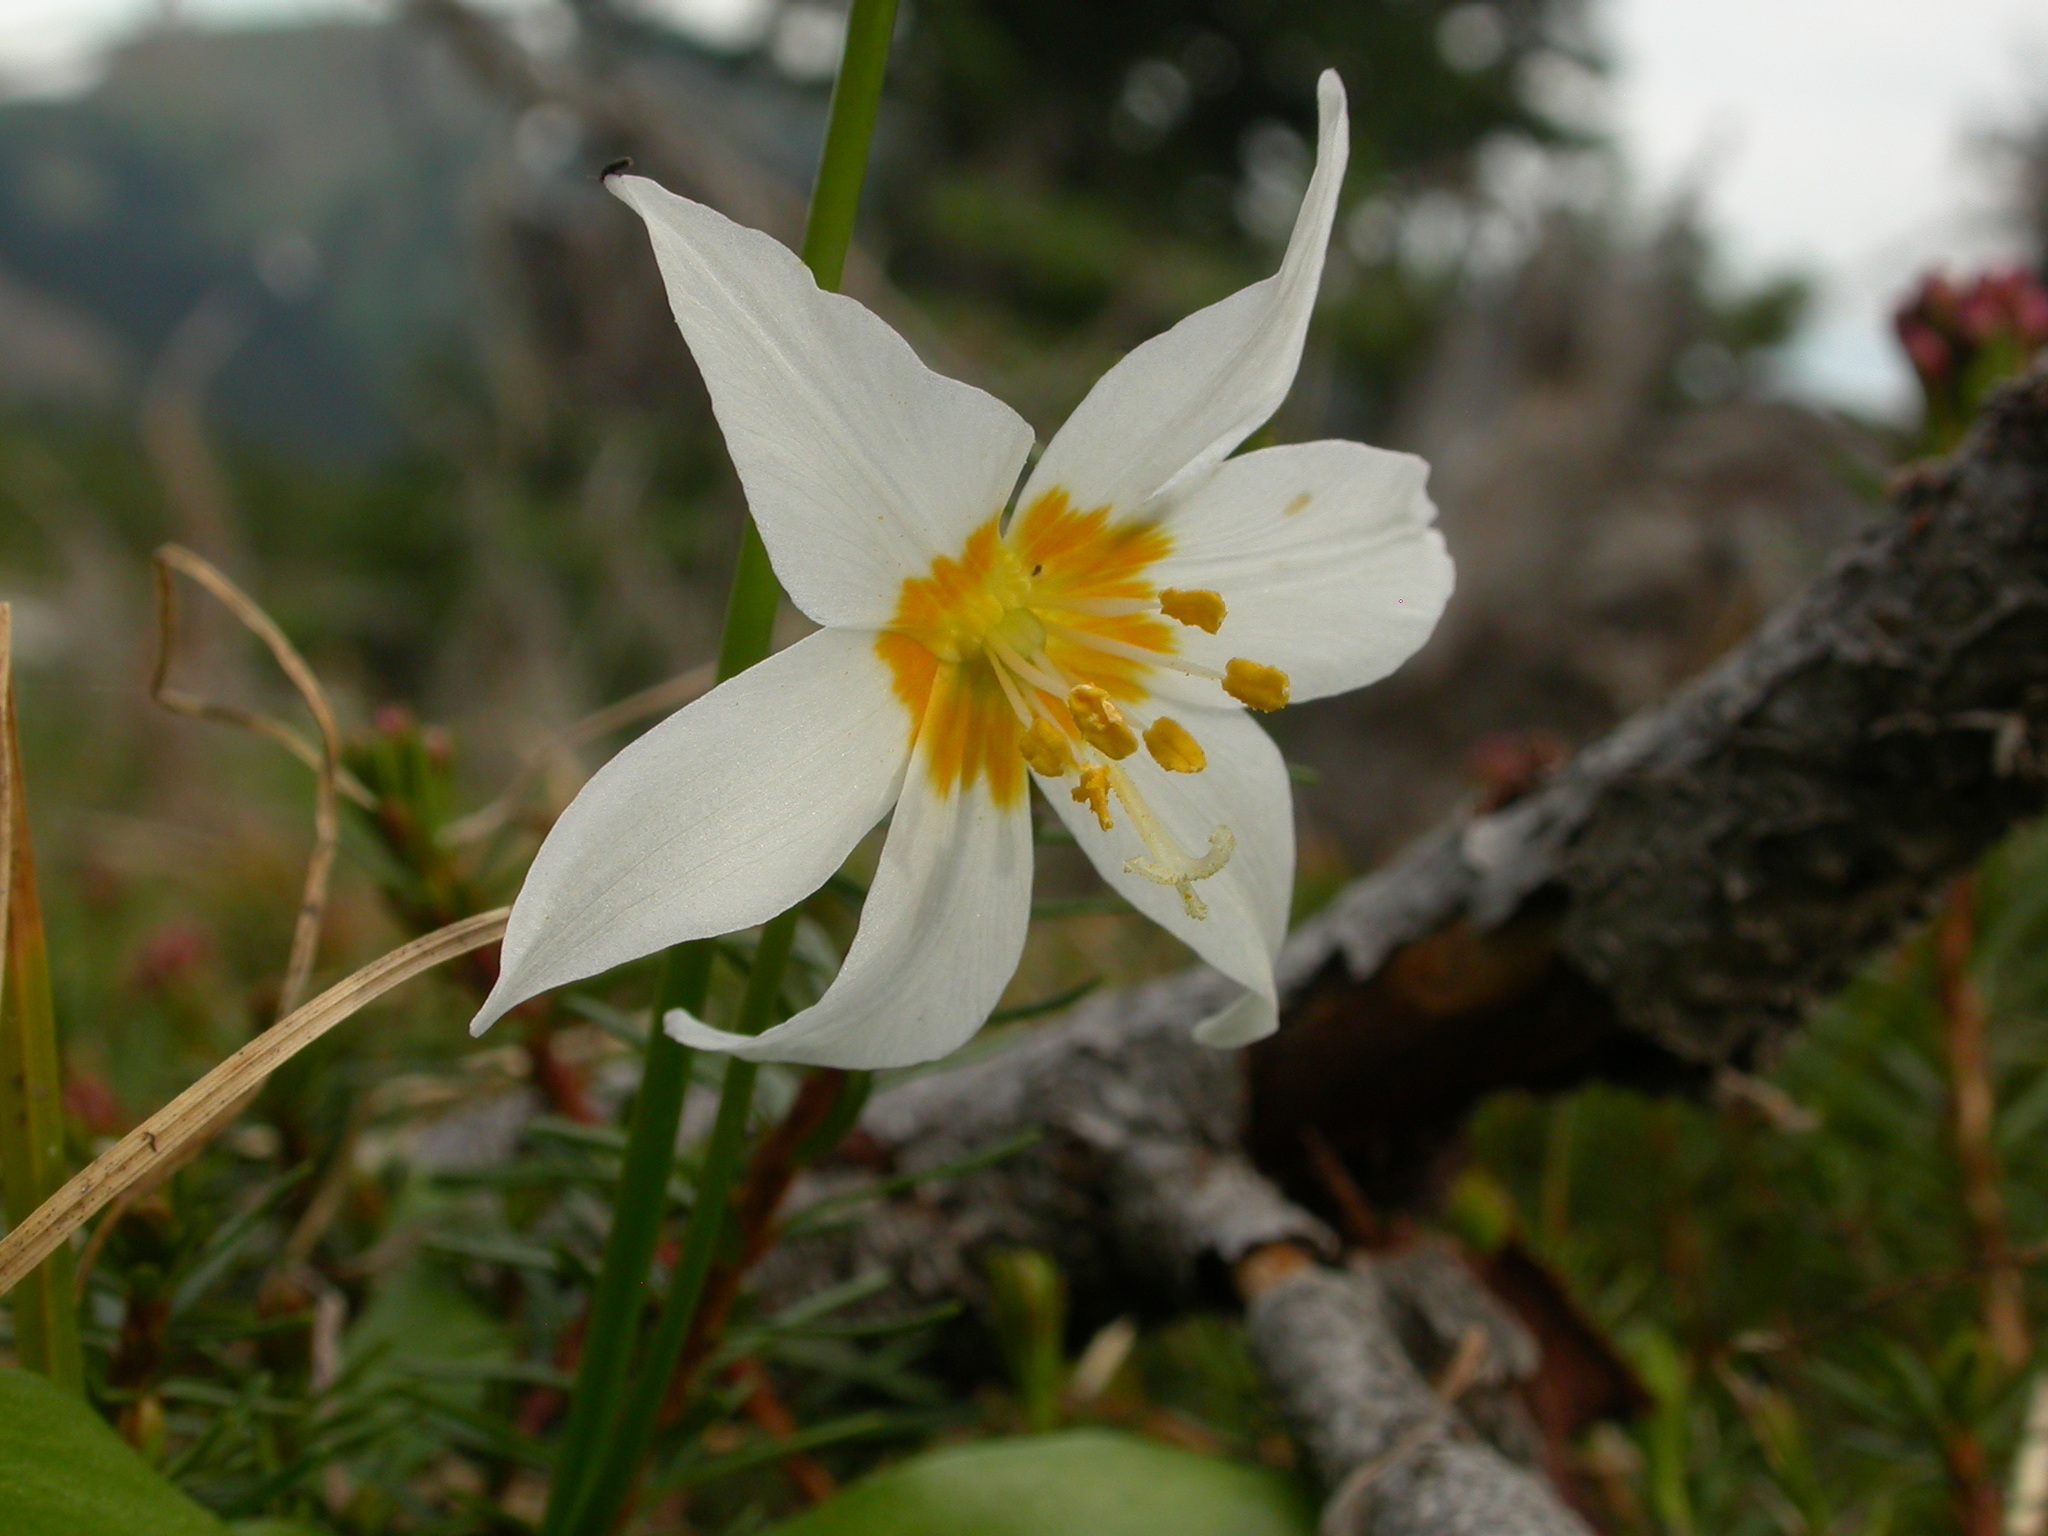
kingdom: Plantae
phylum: Tracheophyta
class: Liliopsida
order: Liliales
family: Liliaceae
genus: Erythronium
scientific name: Erythronium montanum
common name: Avalanche lily
